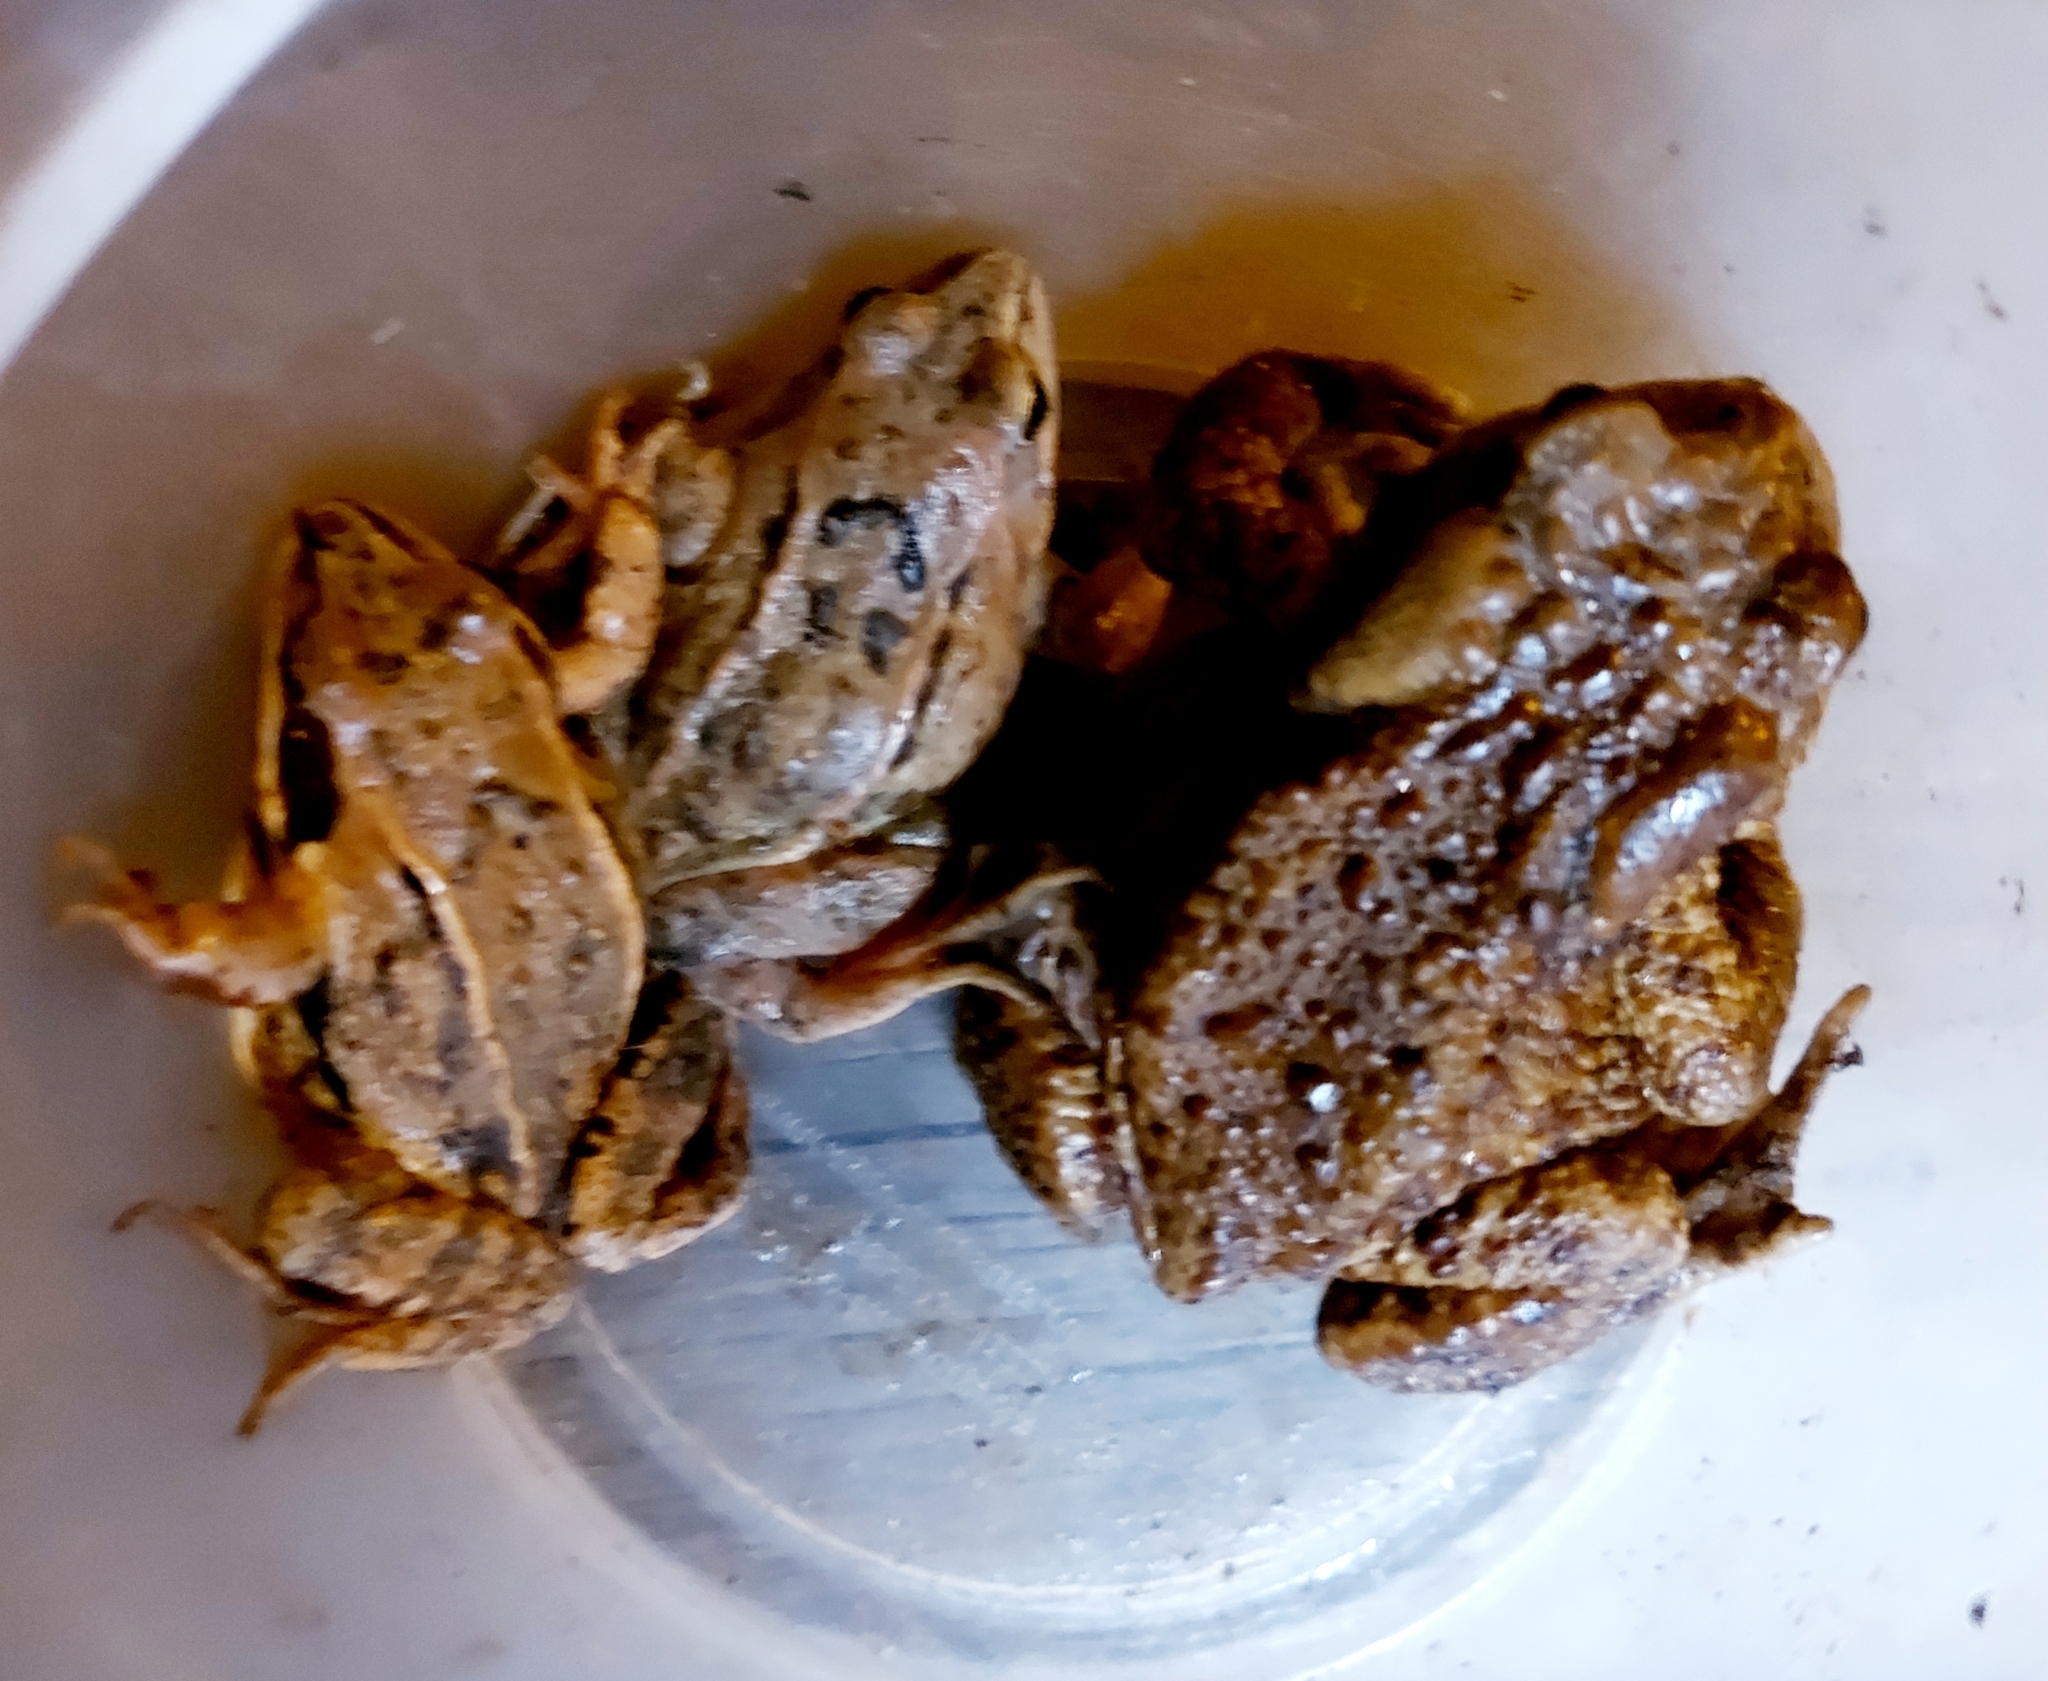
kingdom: Animalia
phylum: Chordata
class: Amphibia
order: Anura
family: Bufonidae
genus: Bufo
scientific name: Bufo bufo
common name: Common toad
